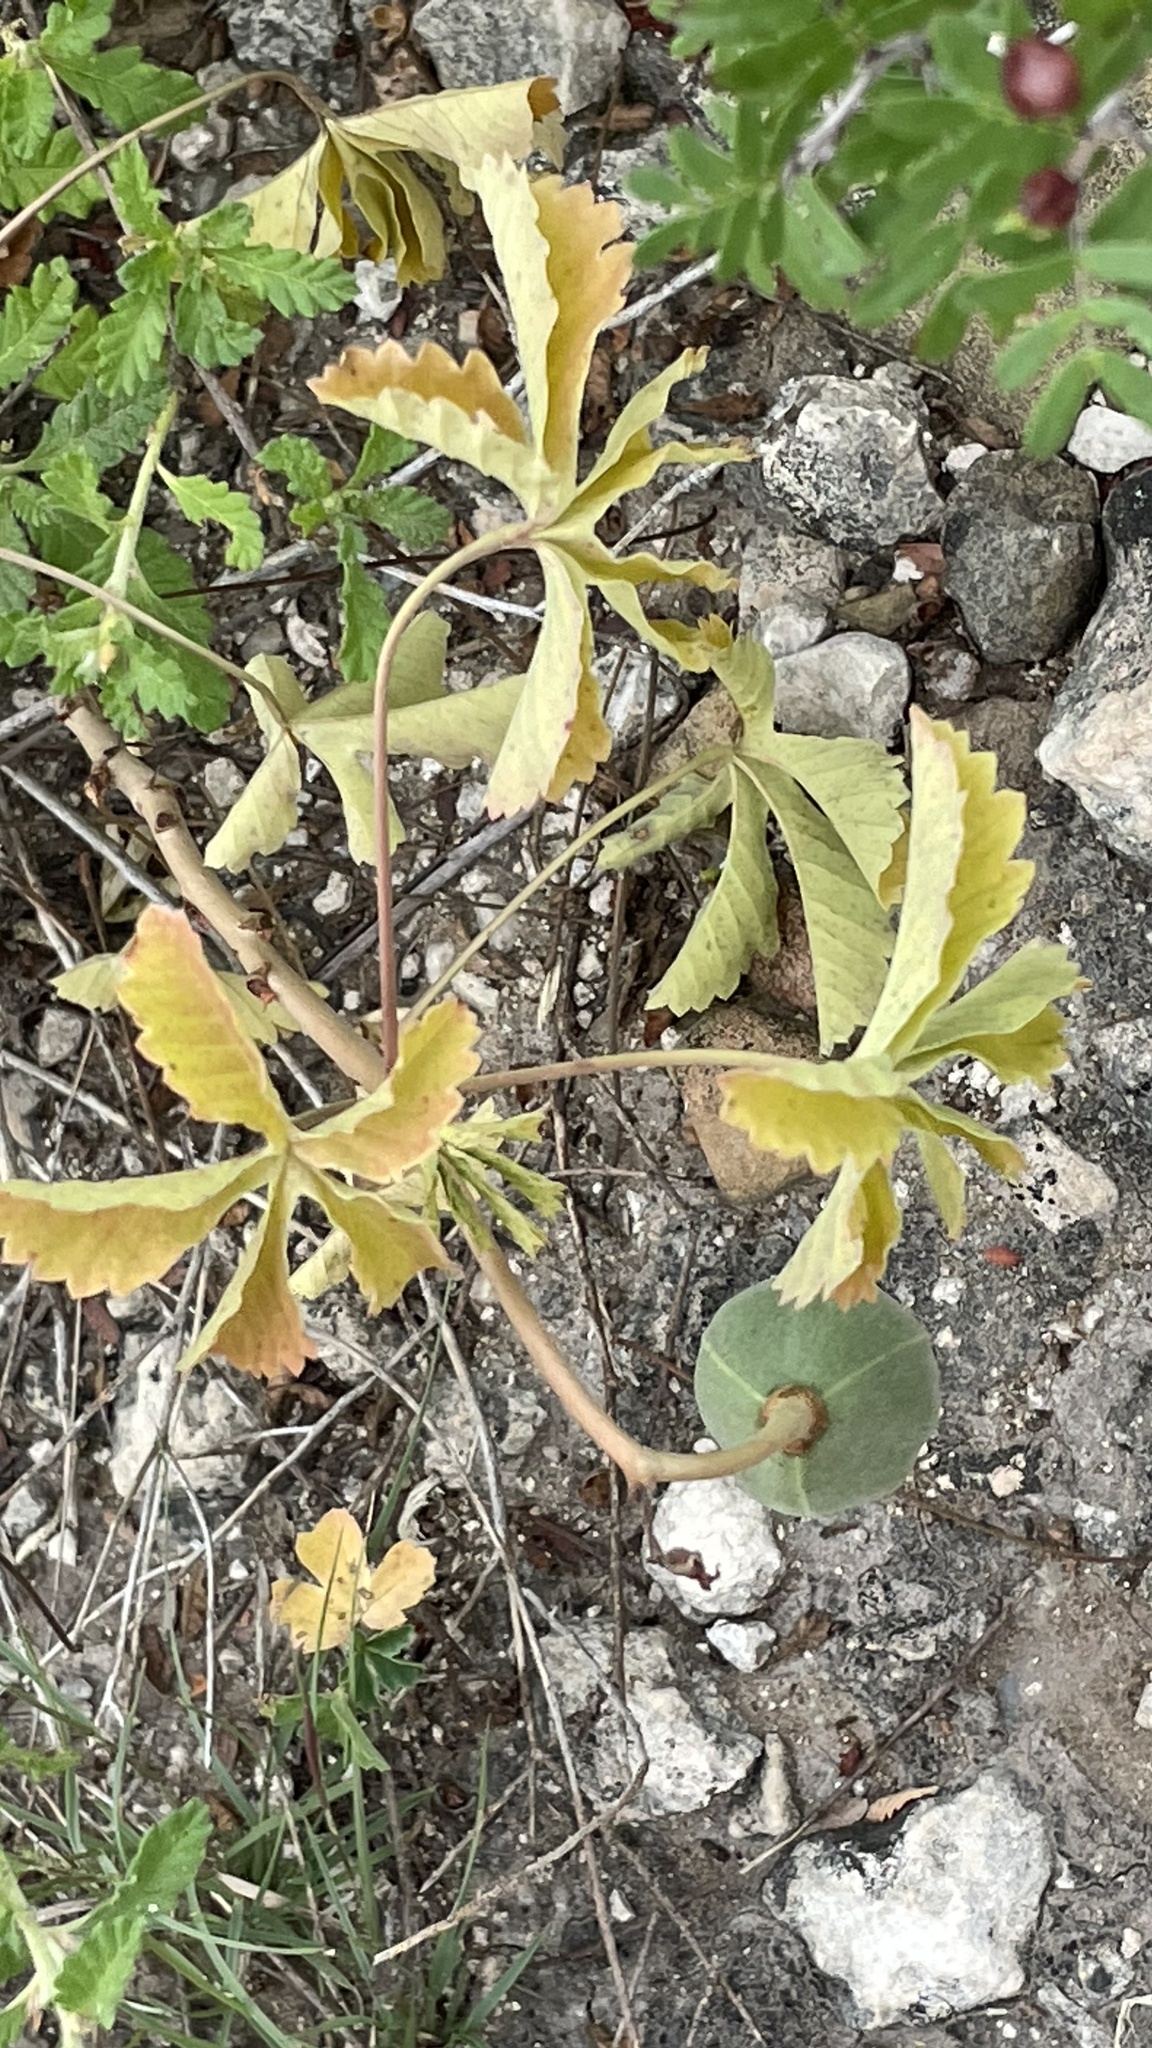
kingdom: Plantae
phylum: Tracheophyta
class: Magnoliopsida
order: Malvales
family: Cochlospermaceae
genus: Cochlospermum
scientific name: Cochlospermum wrightii
